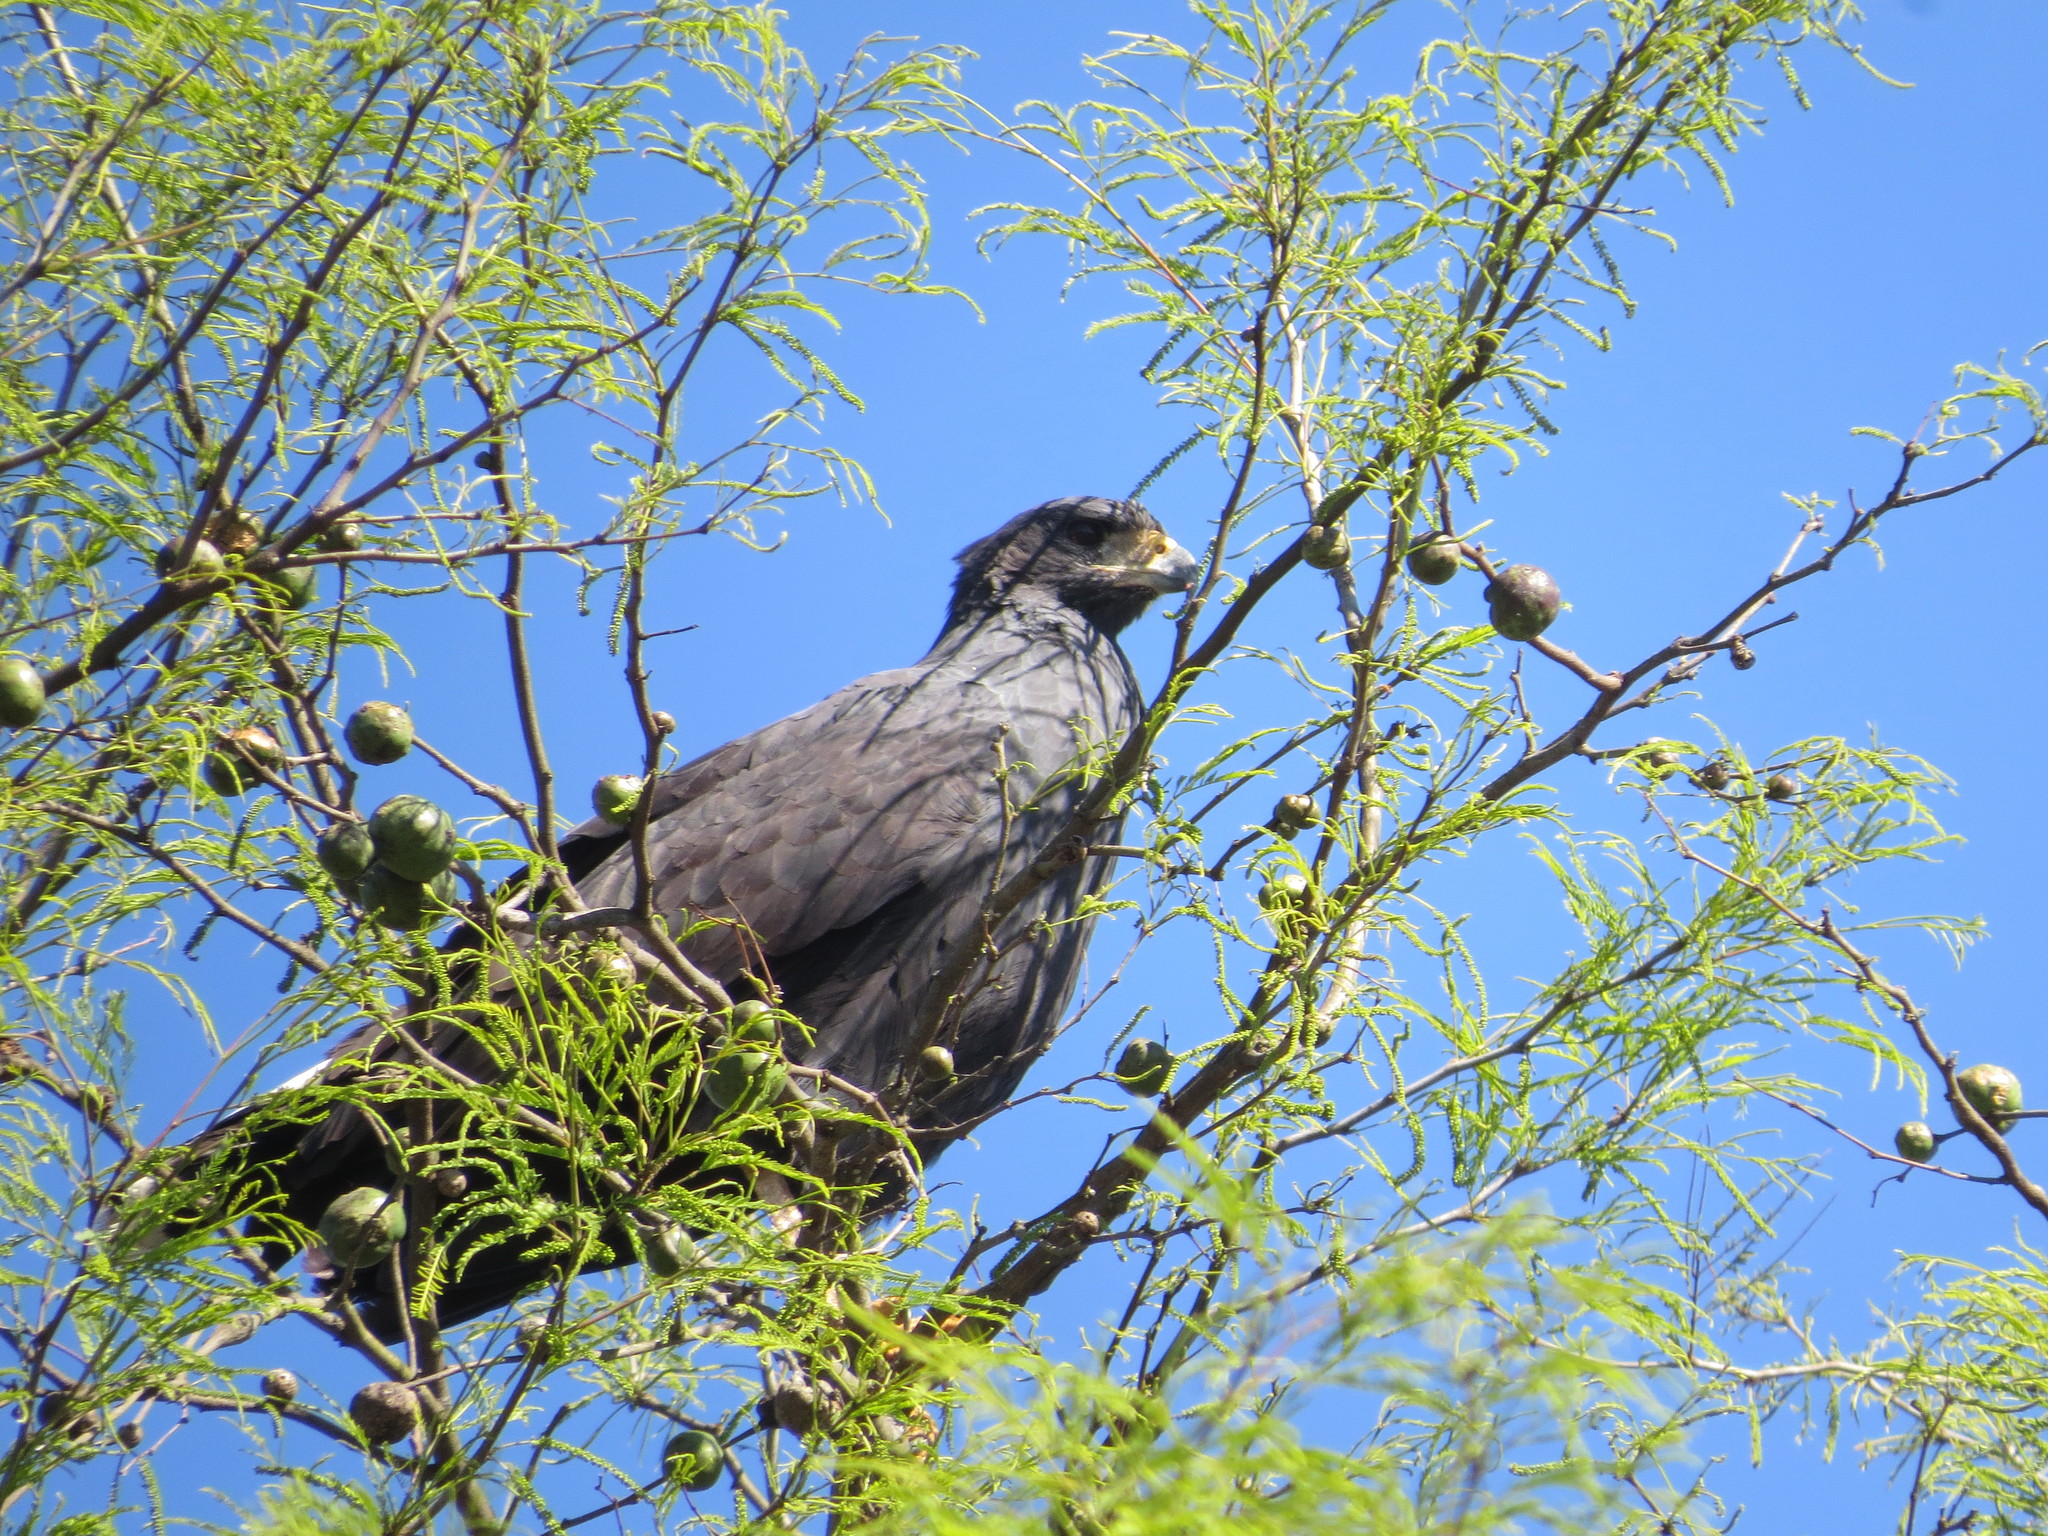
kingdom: Animalia
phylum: Chordata
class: Aves
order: Accipitriformes
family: Accipitridae
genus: Buteogallus
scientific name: Buteogallus urubitinga
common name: Great black hawk
